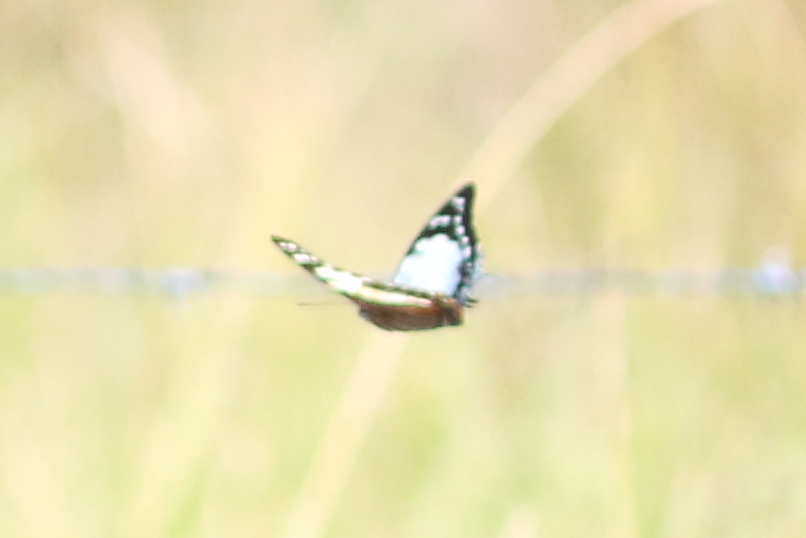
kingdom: Animalia
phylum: Arthropoda
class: Insecta
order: Lepidoptera
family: Nymphalidae
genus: Charaxes
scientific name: Charaxes
